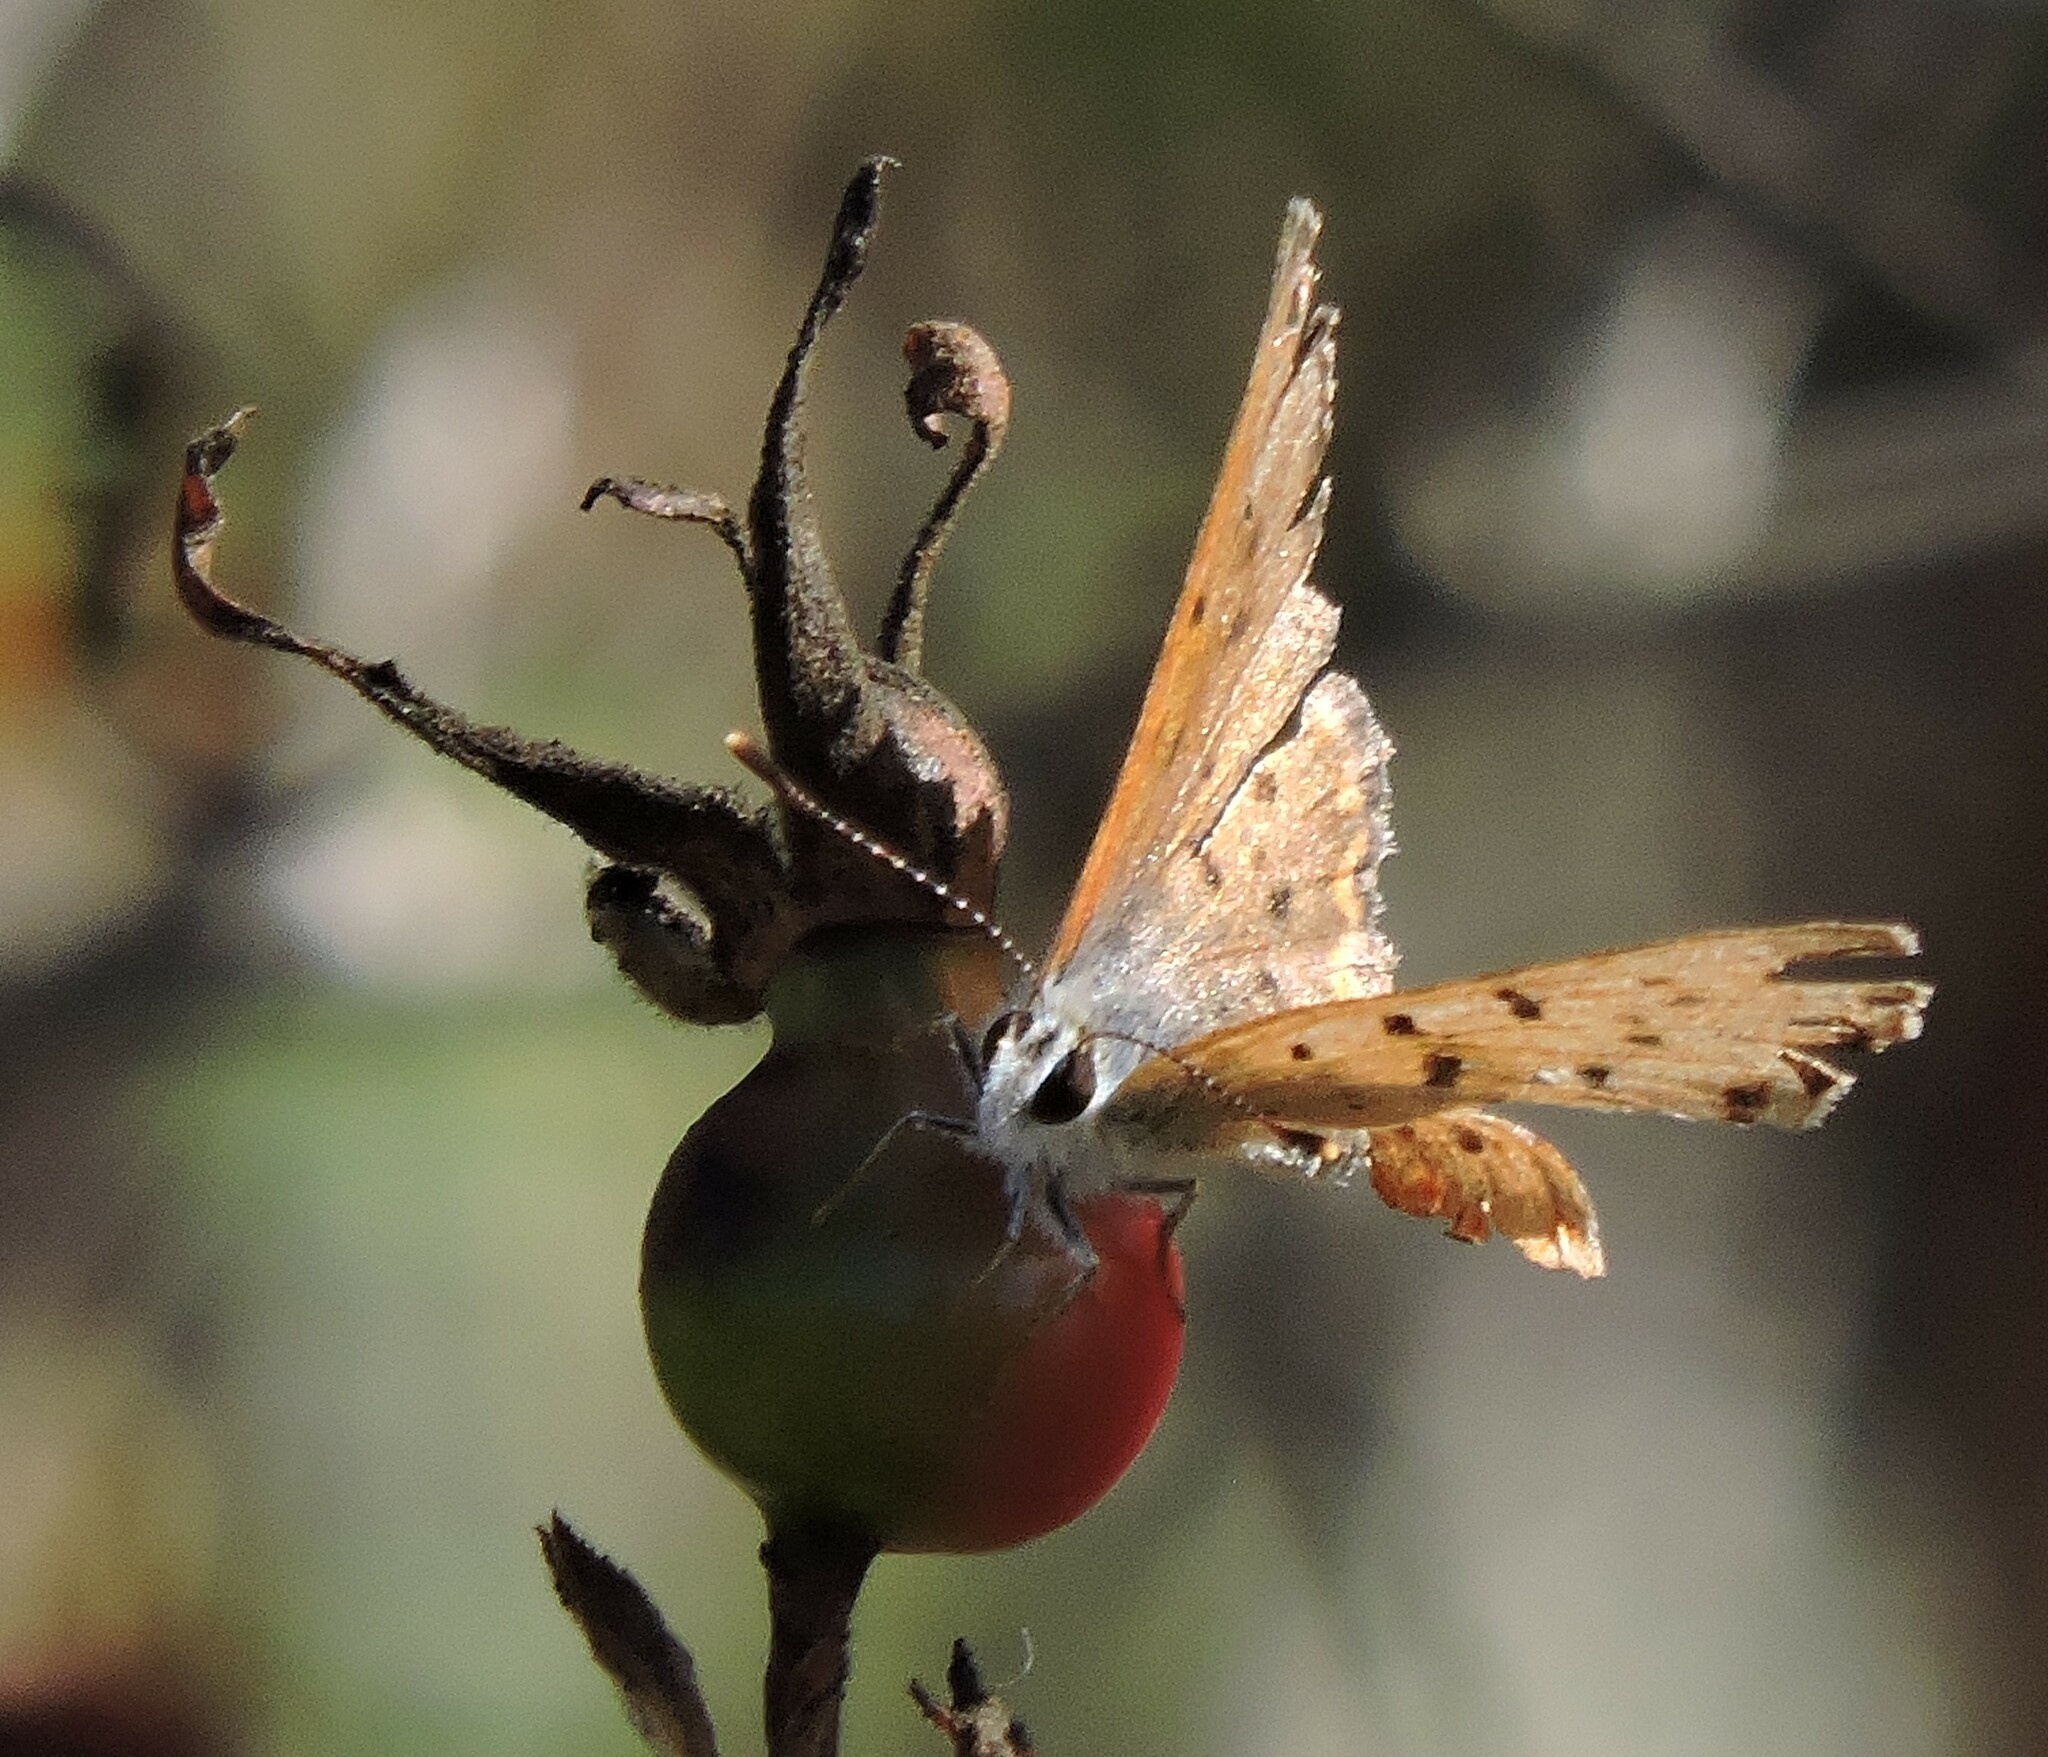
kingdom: Animalia
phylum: Arthropoda
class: Insecta
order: Lepidoptera
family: Lycaenidae
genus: Tharsalea
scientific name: Tharsalea helloides
